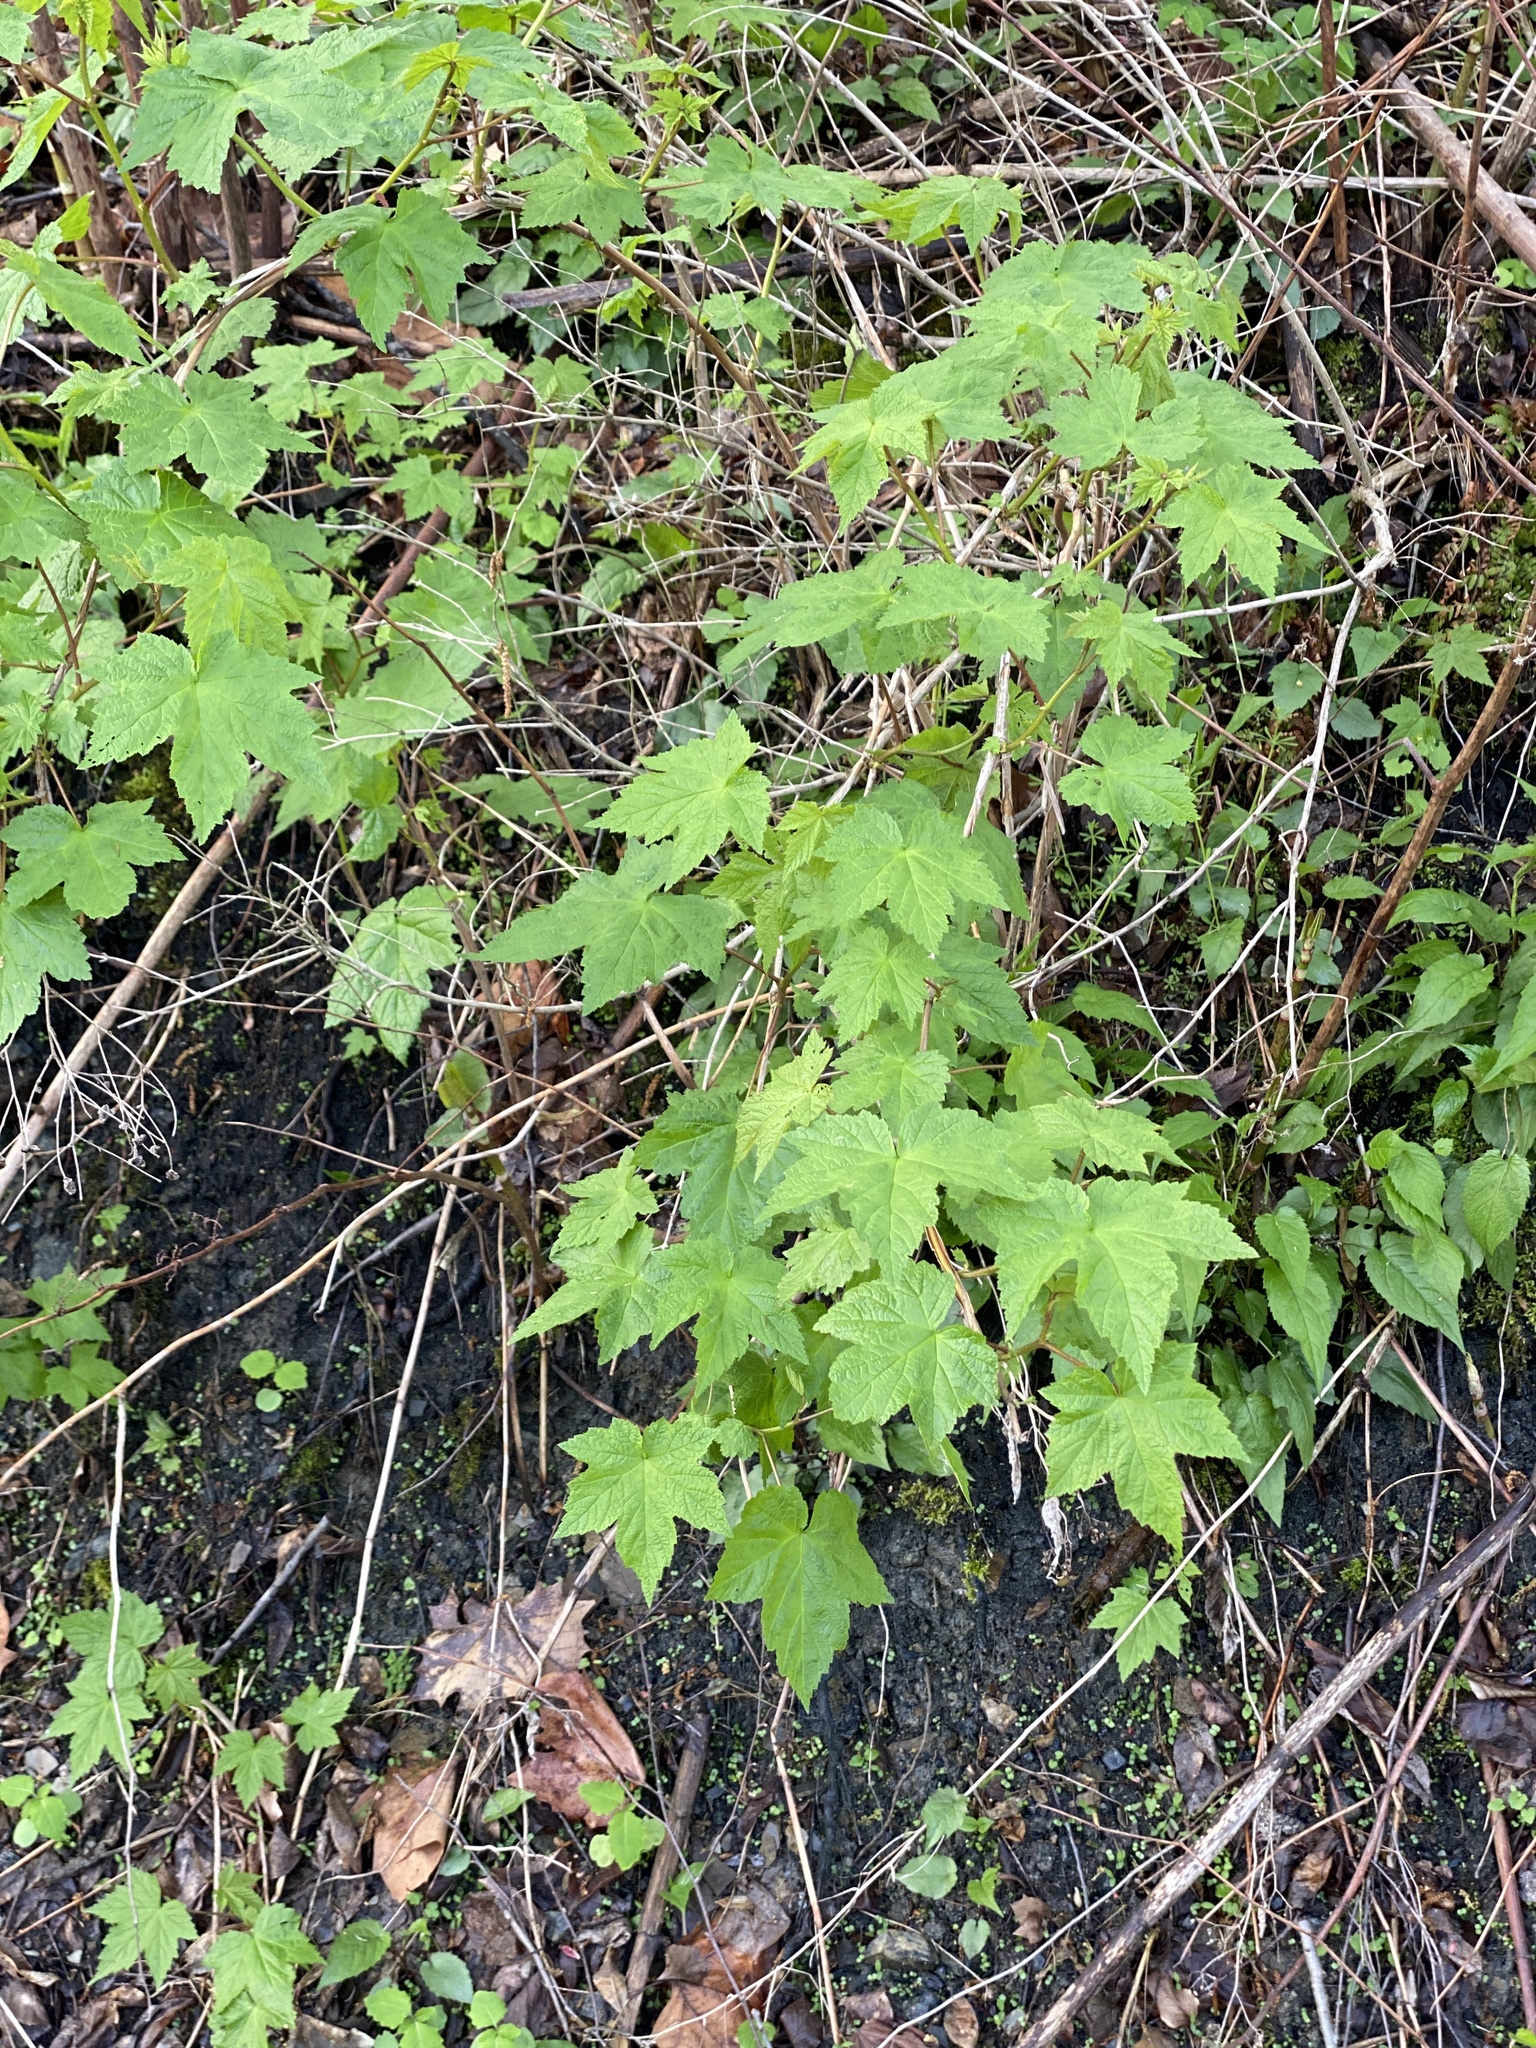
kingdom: Plantae
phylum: Tracheophyta
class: Magnoliopsida
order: Rosales
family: Rosaceae
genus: Rubus
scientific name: Rubus odoratus
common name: Purple-flowered raspberry
